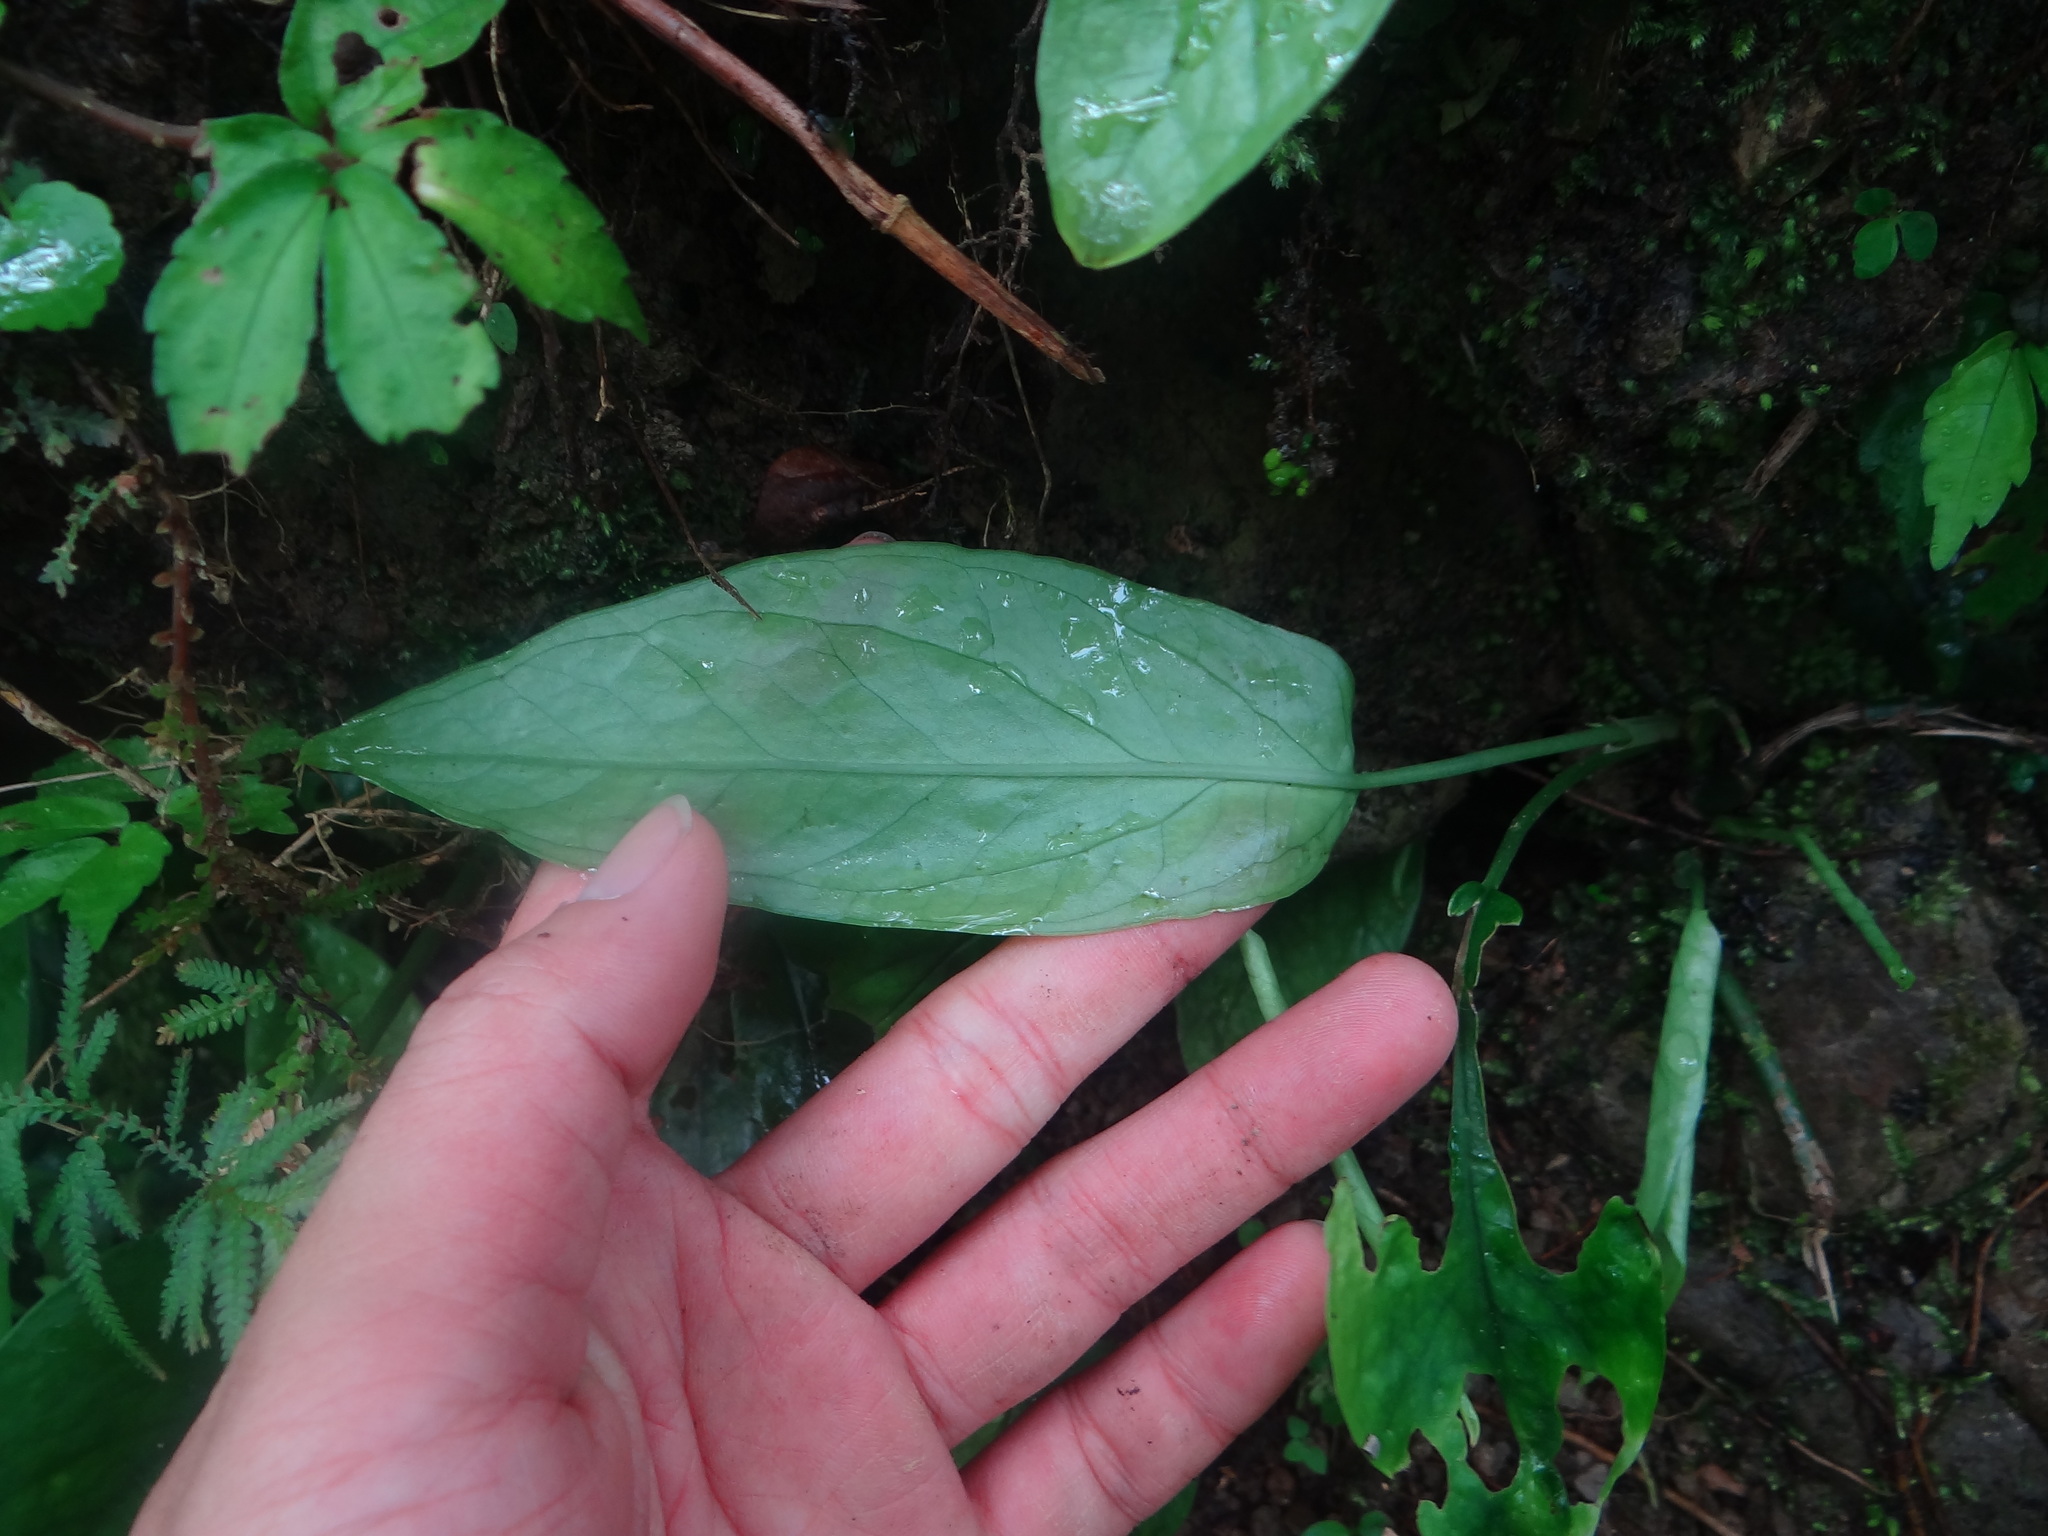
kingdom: Plantae
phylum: Tracheophyta
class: Liliopsida
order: Alismatales
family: Araceae
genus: Epipremnum
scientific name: Epipremnum pinnatum
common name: Centipede tongavine
